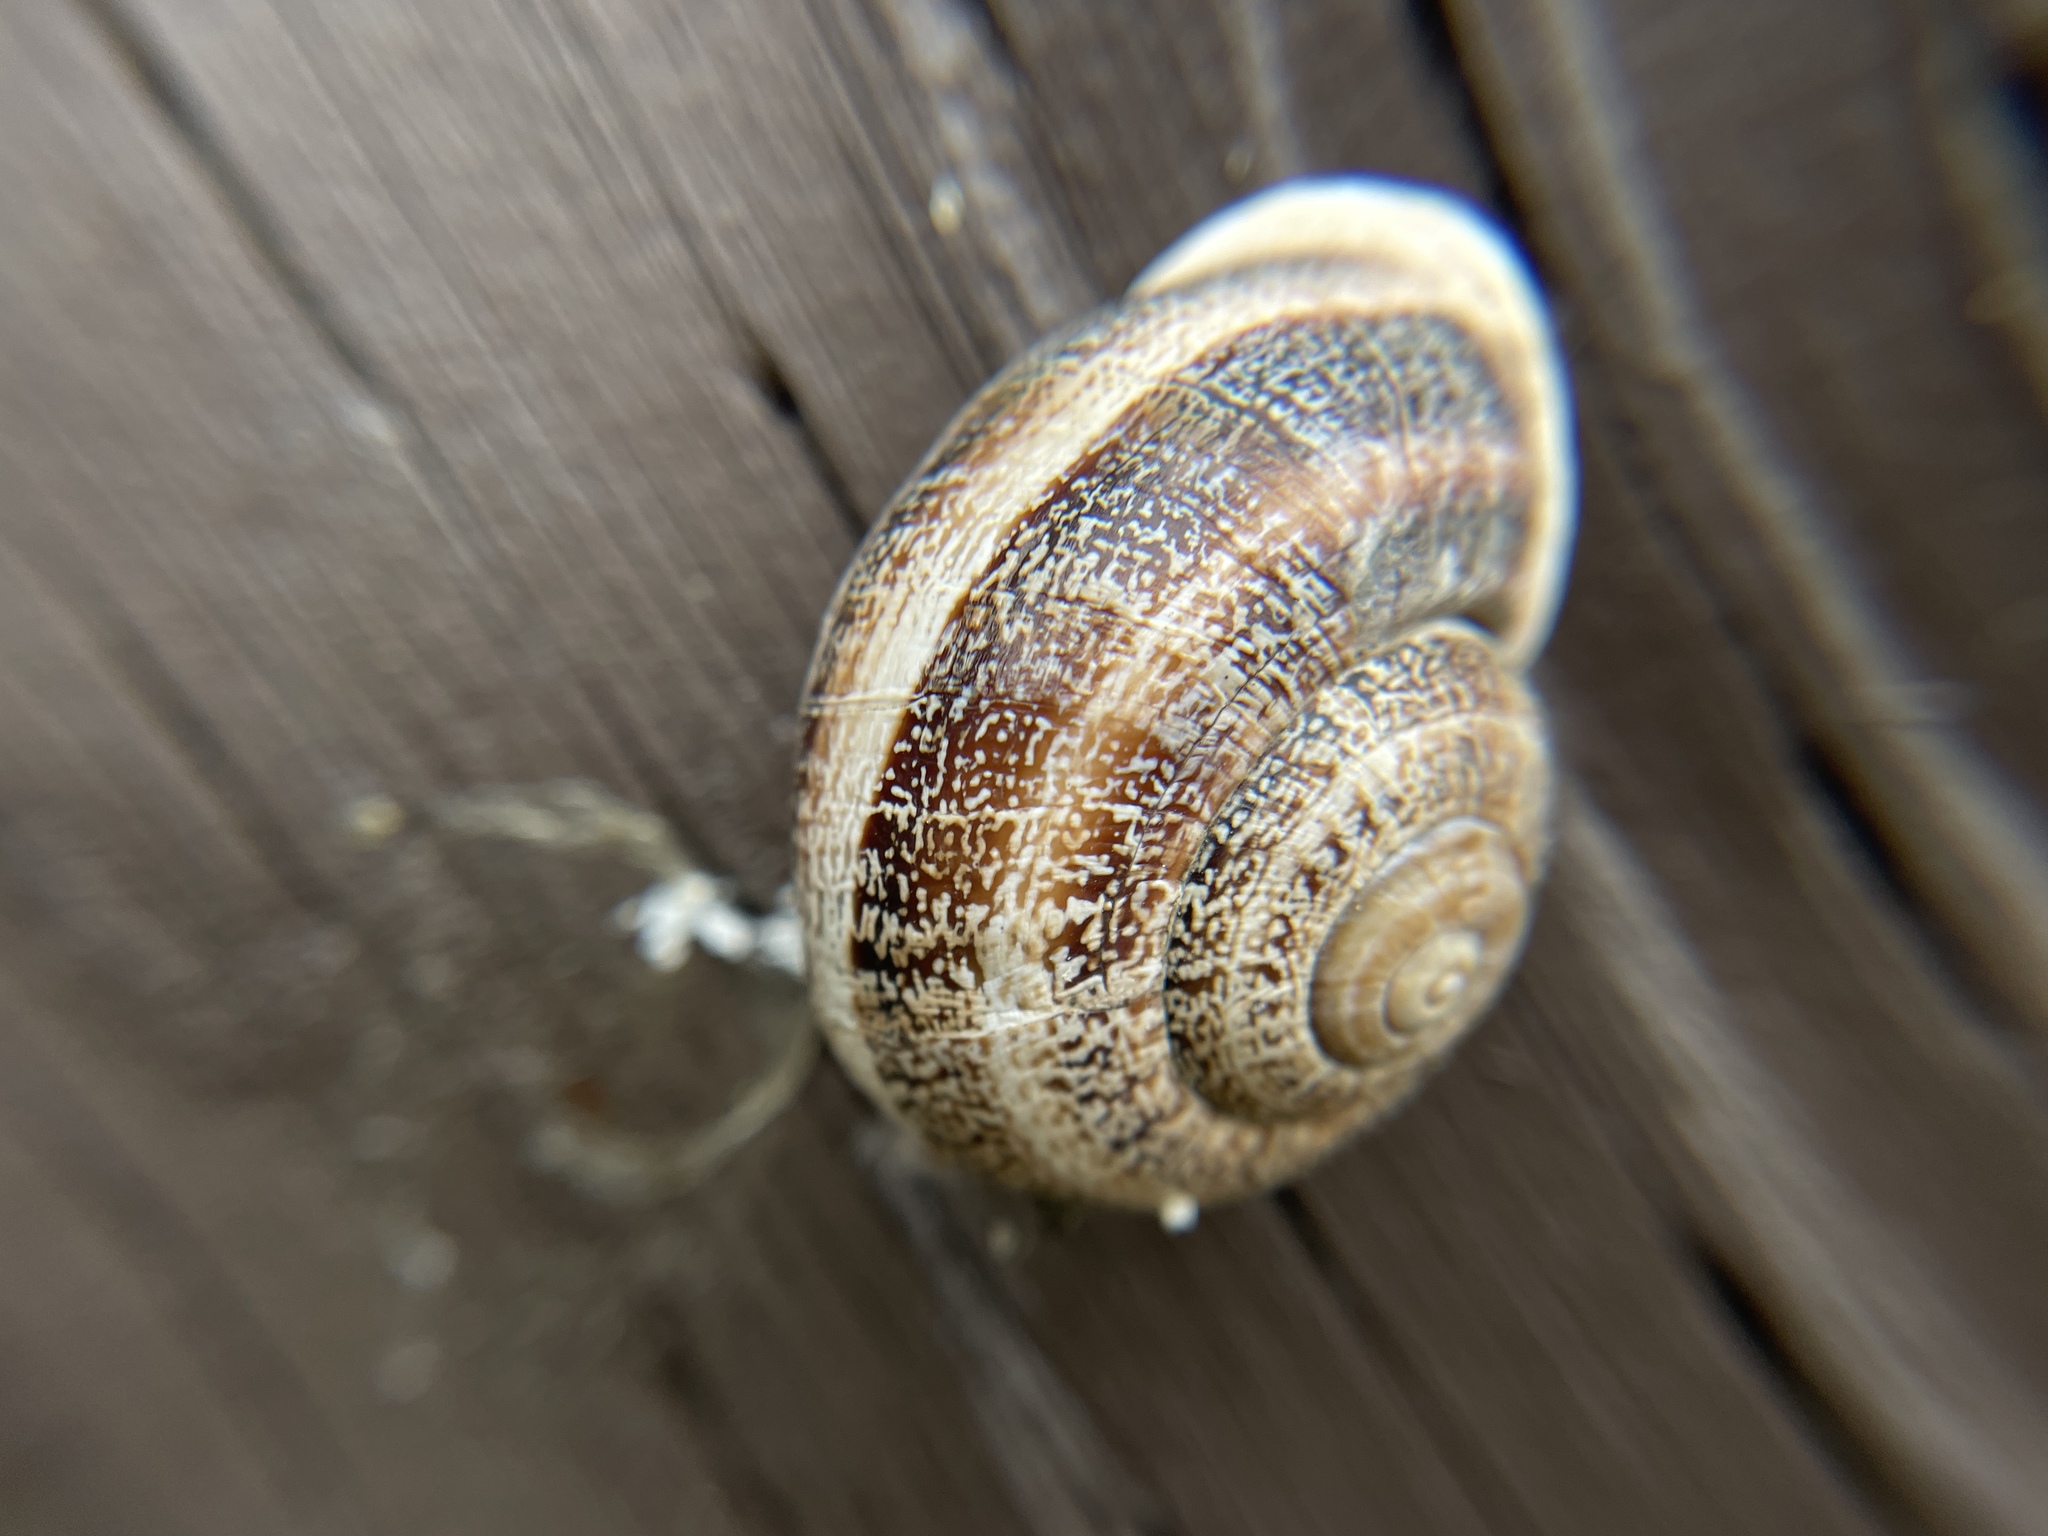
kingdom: Animalia
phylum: Mollusca
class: Gastropoda
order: Stylommatophora
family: Helicidae
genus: Otala
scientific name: Otala lactea
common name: Milk snail
